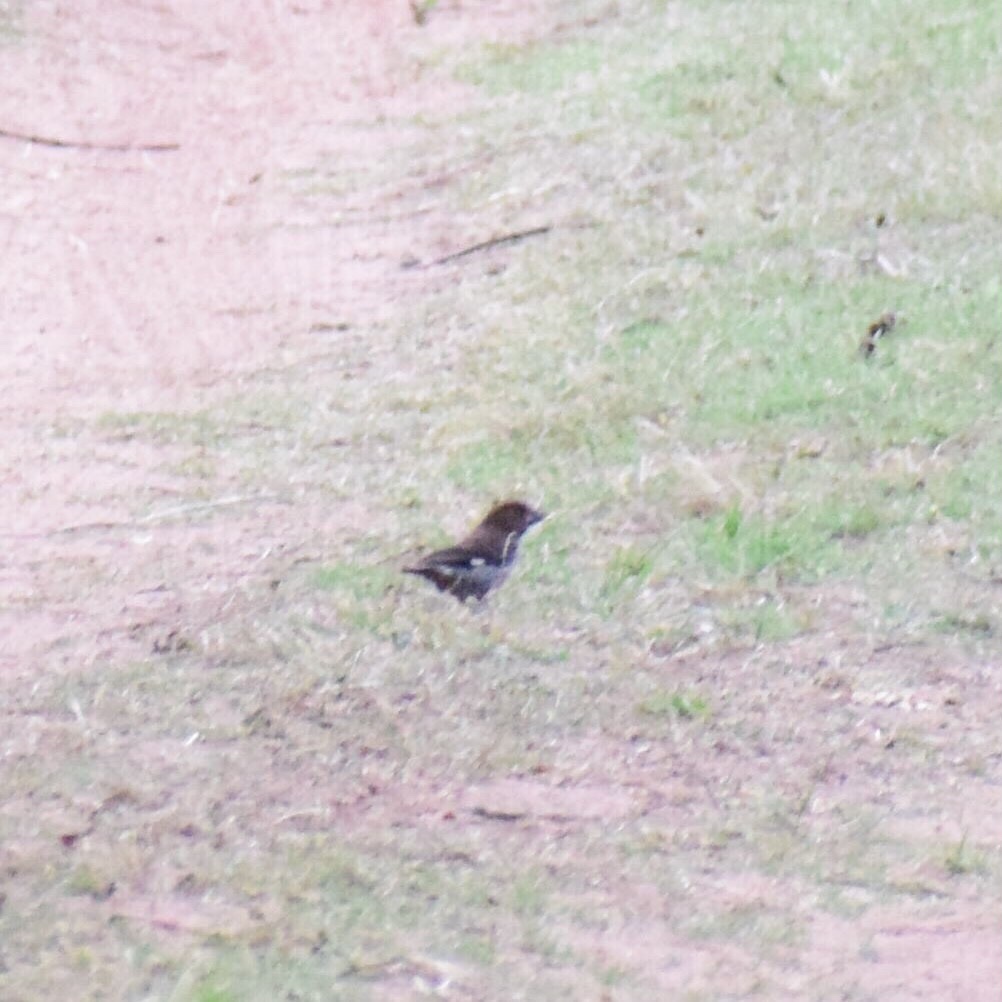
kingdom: Animalia
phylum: Chordata
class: Aves
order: Passeriformes
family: Ploceidae
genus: Amblyospiza
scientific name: Amblyospiza albifrons
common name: Thick-billed weaver
